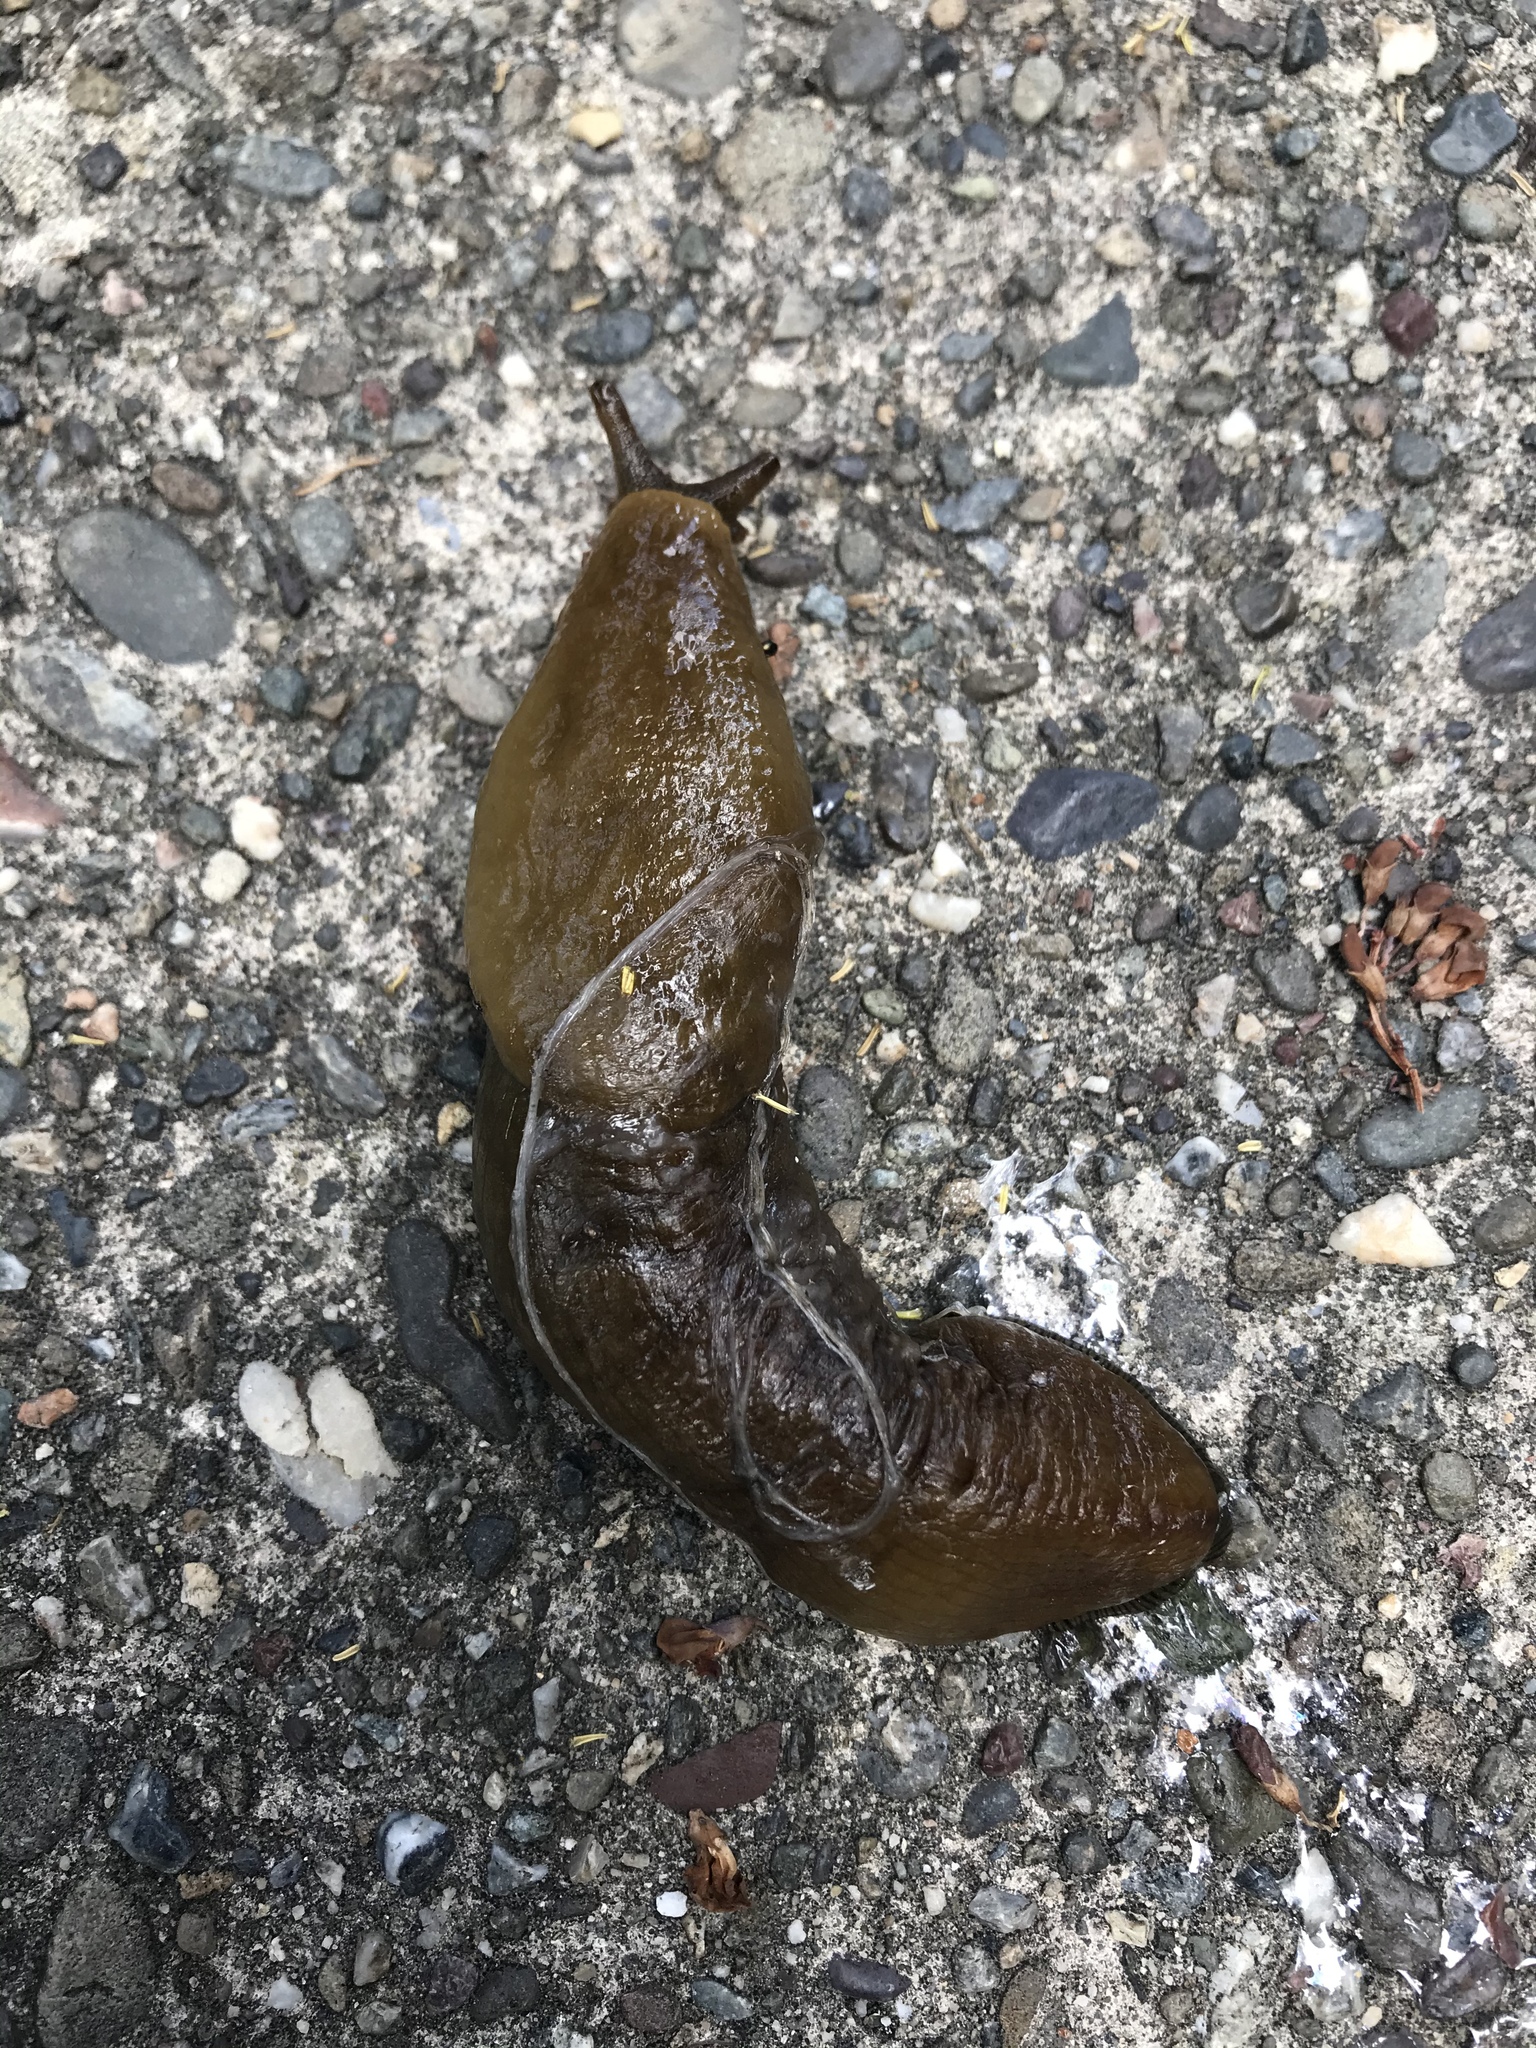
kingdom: Animalia
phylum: Mollusca
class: Gastropoda
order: Stylommatophora
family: Ariolimacidae
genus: Ariolimax
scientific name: Ariolimax buttoni
